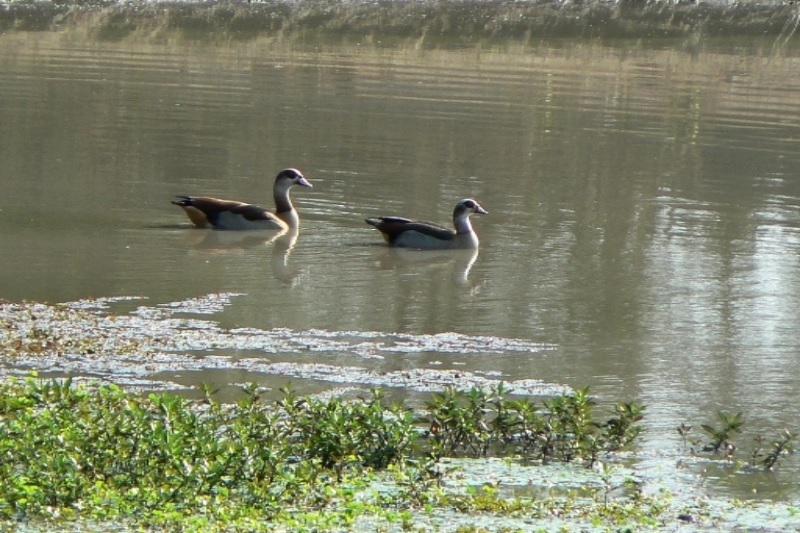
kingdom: Animalia
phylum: Chordata
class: Aves
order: Anseriformes
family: Anatidae
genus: Alopochen
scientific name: Alopochen aegyptiaca
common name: Egyptian goose
